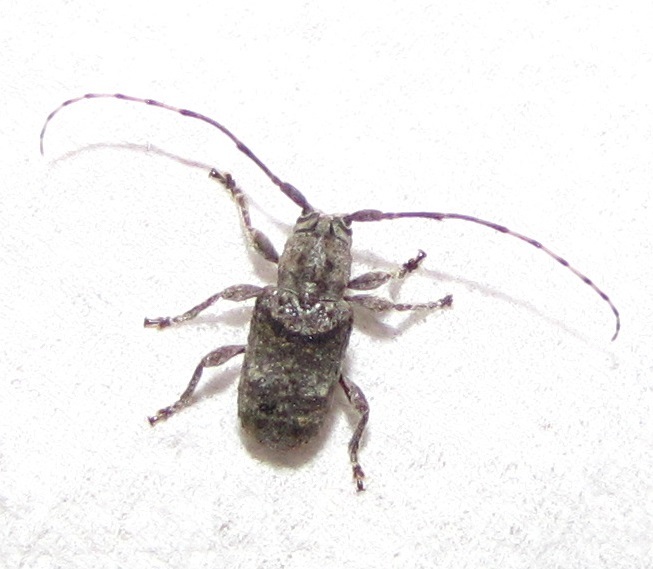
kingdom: Animalia
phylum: Arthropoda
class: Insecta
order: Coleoptera
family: Cerambycidae
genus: Ecyrus
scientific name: Ecyrus dasycerus
